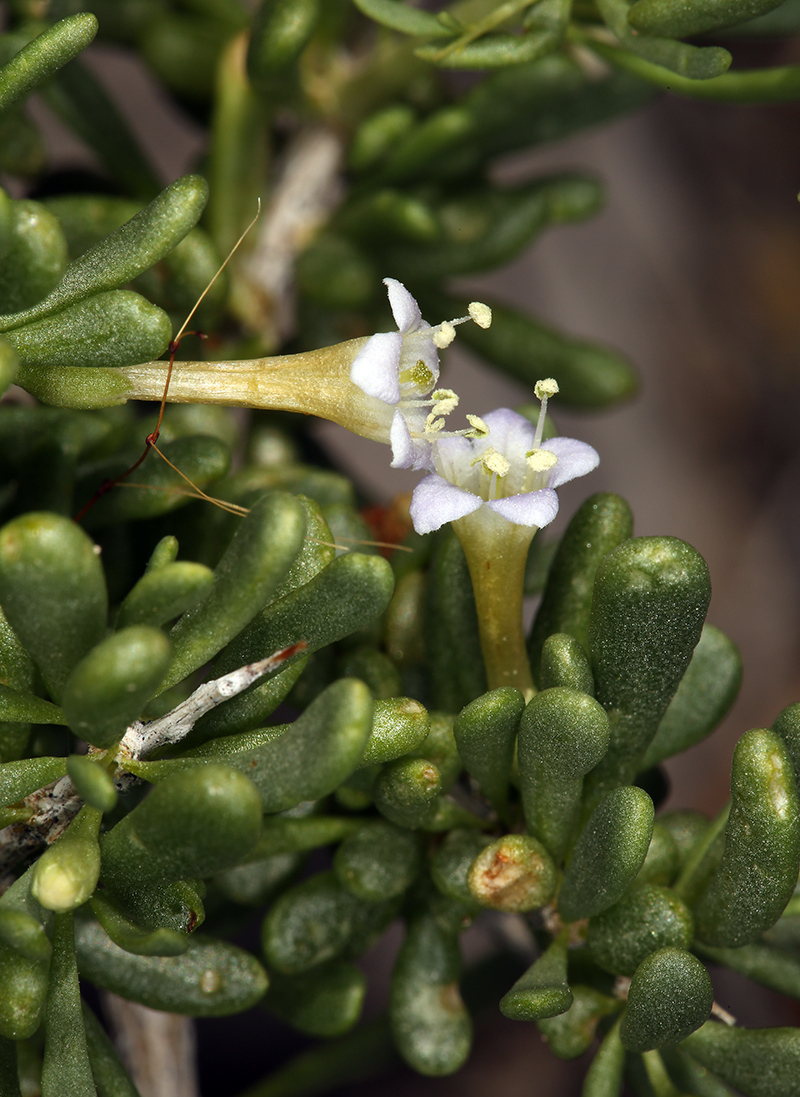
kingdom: Plantae
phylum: Tracheophyta
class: Magnoliopsida
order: Solanales
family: Solanaceae
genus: Lycium
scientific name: Lycium andersonii
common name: Water-jacket
